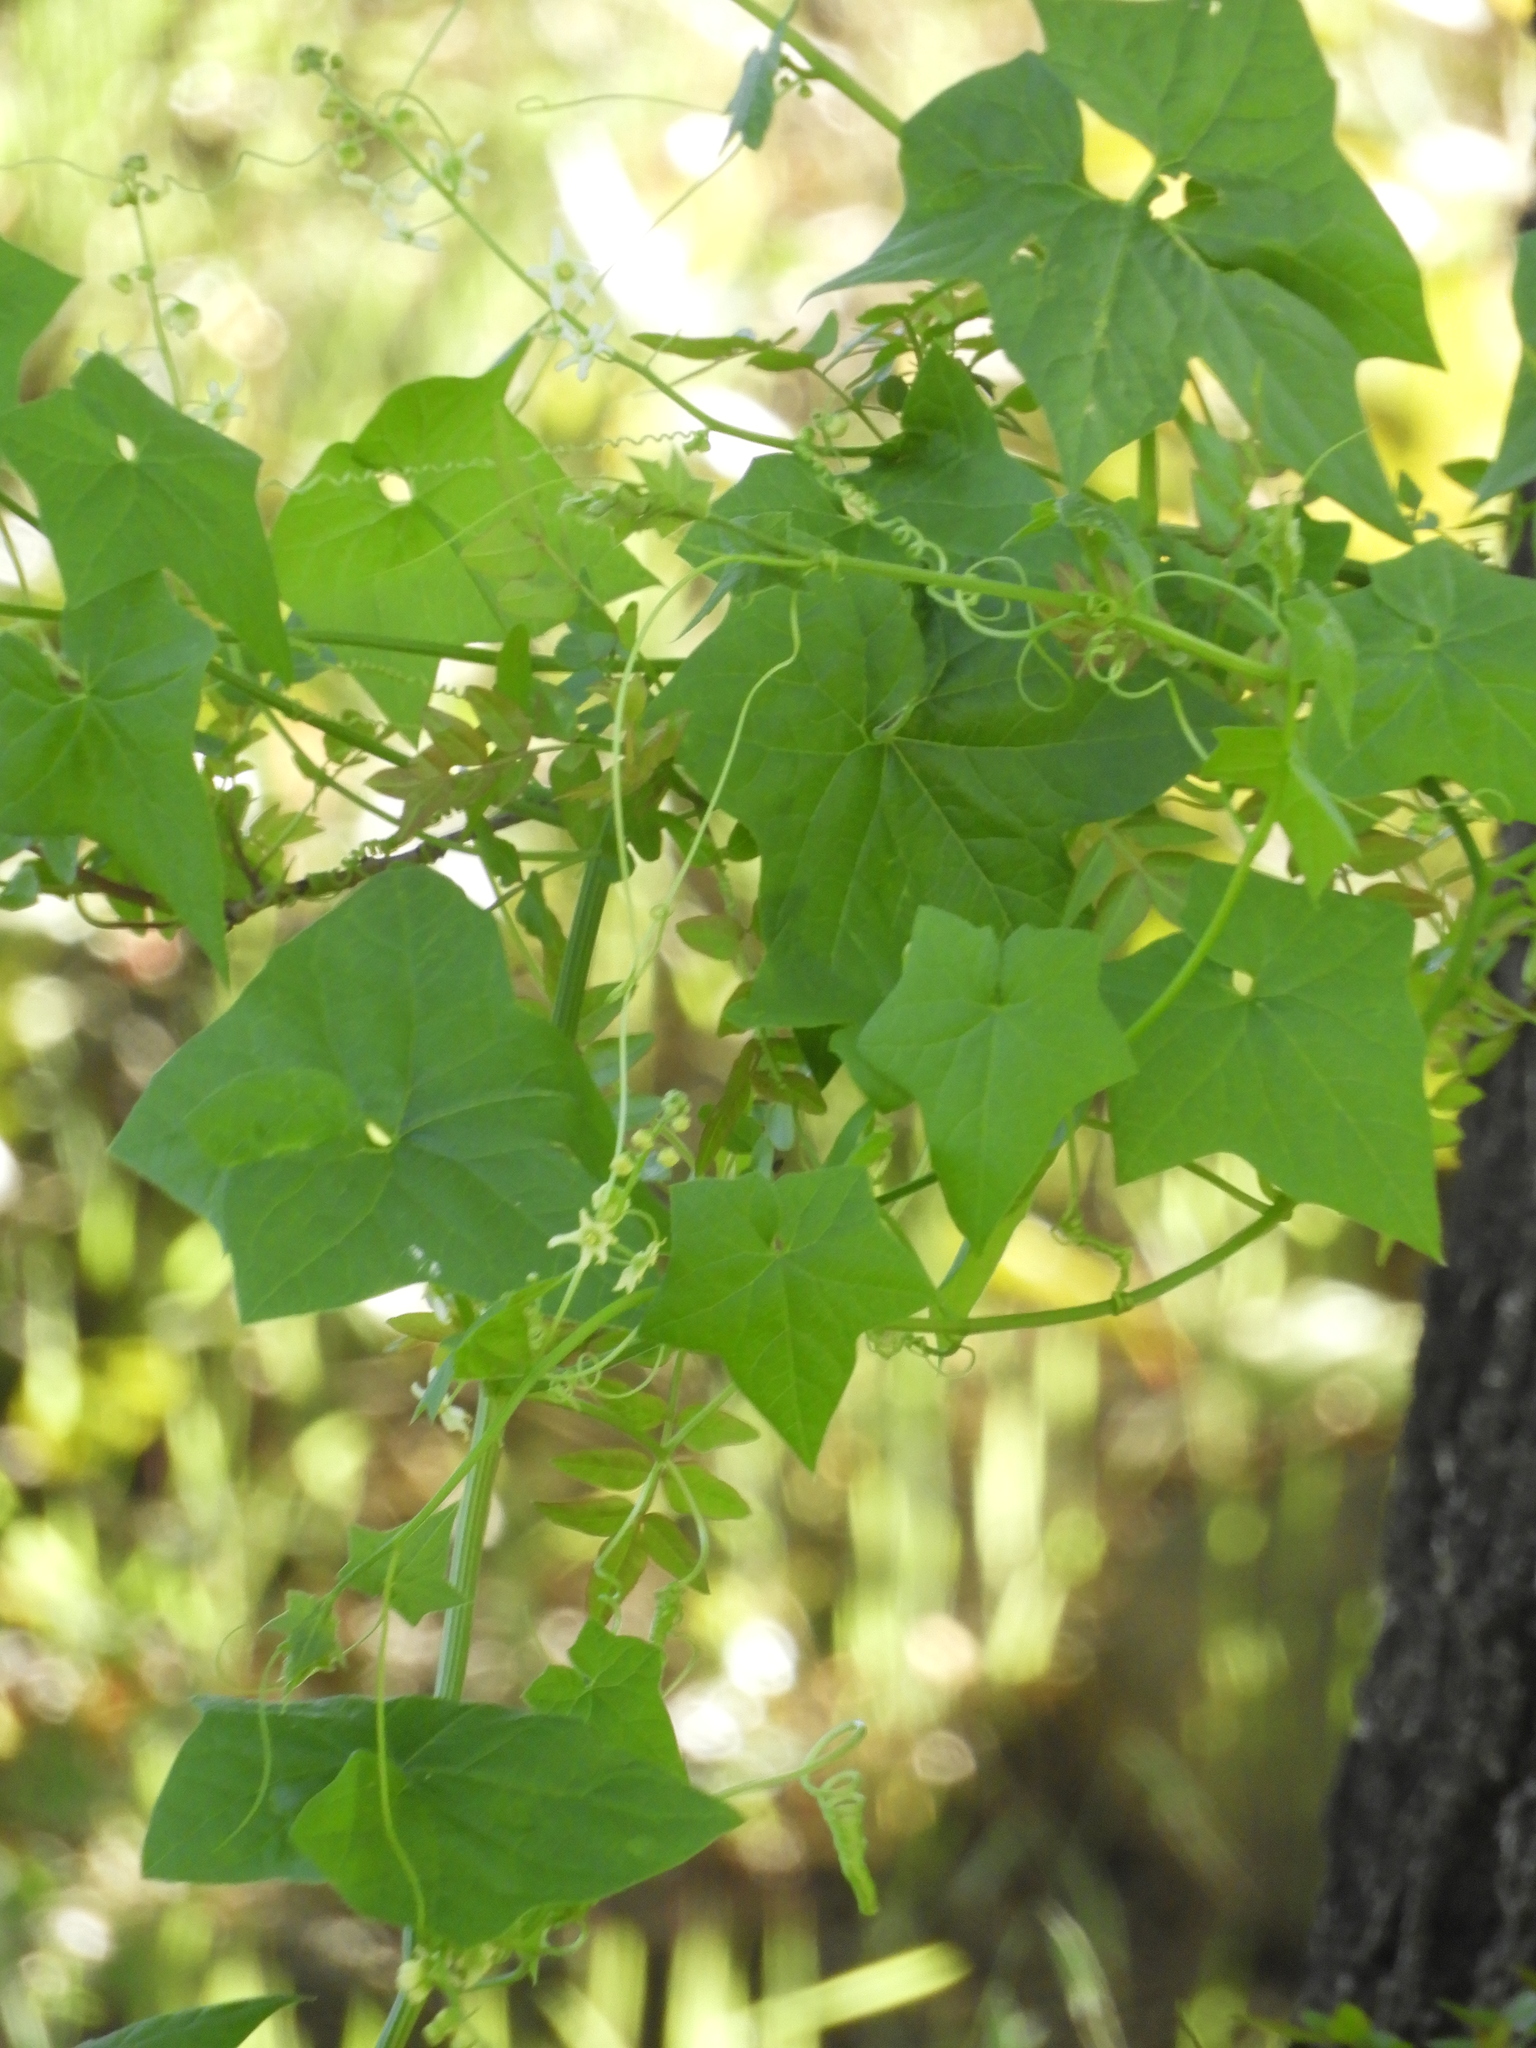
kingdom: Plantae
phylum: Tracheophyta
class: Magnoliopsida
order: Cucurbitales
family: Cucurbitaceae
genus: Marah
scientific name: Marah fabacea
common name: California manroot
